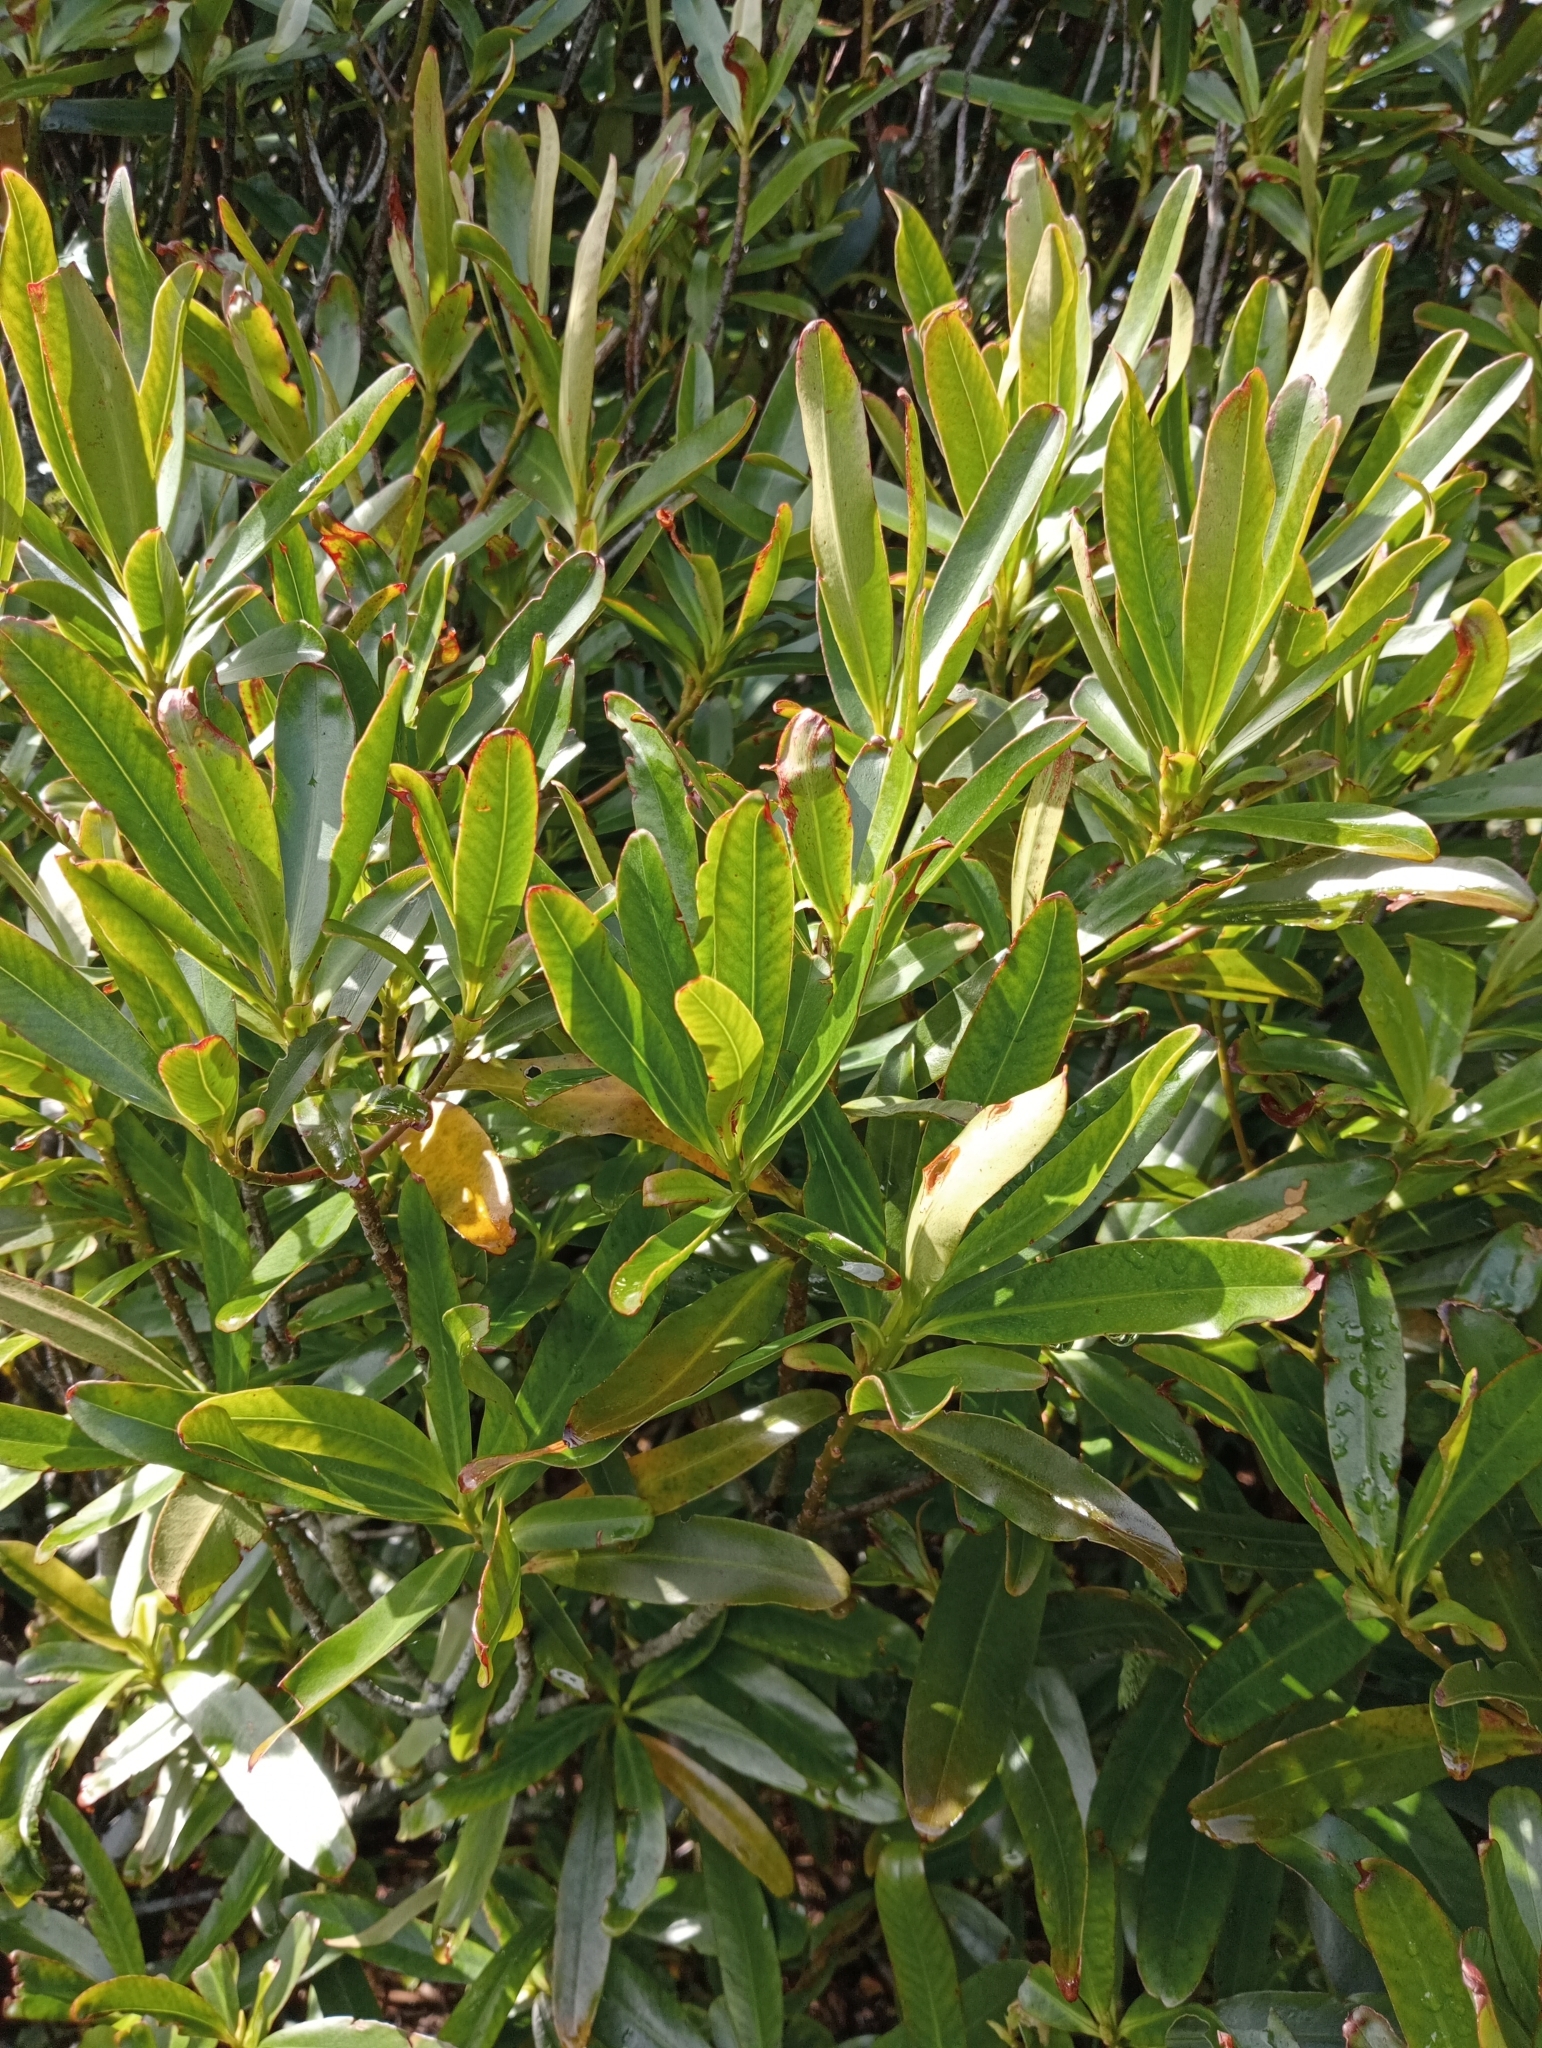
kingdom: Plantae
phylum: Tracheophyta
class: Magnoliopsida
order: Ericales
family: Primulaceae
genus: Myrsine
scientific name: Myrsine salicina
